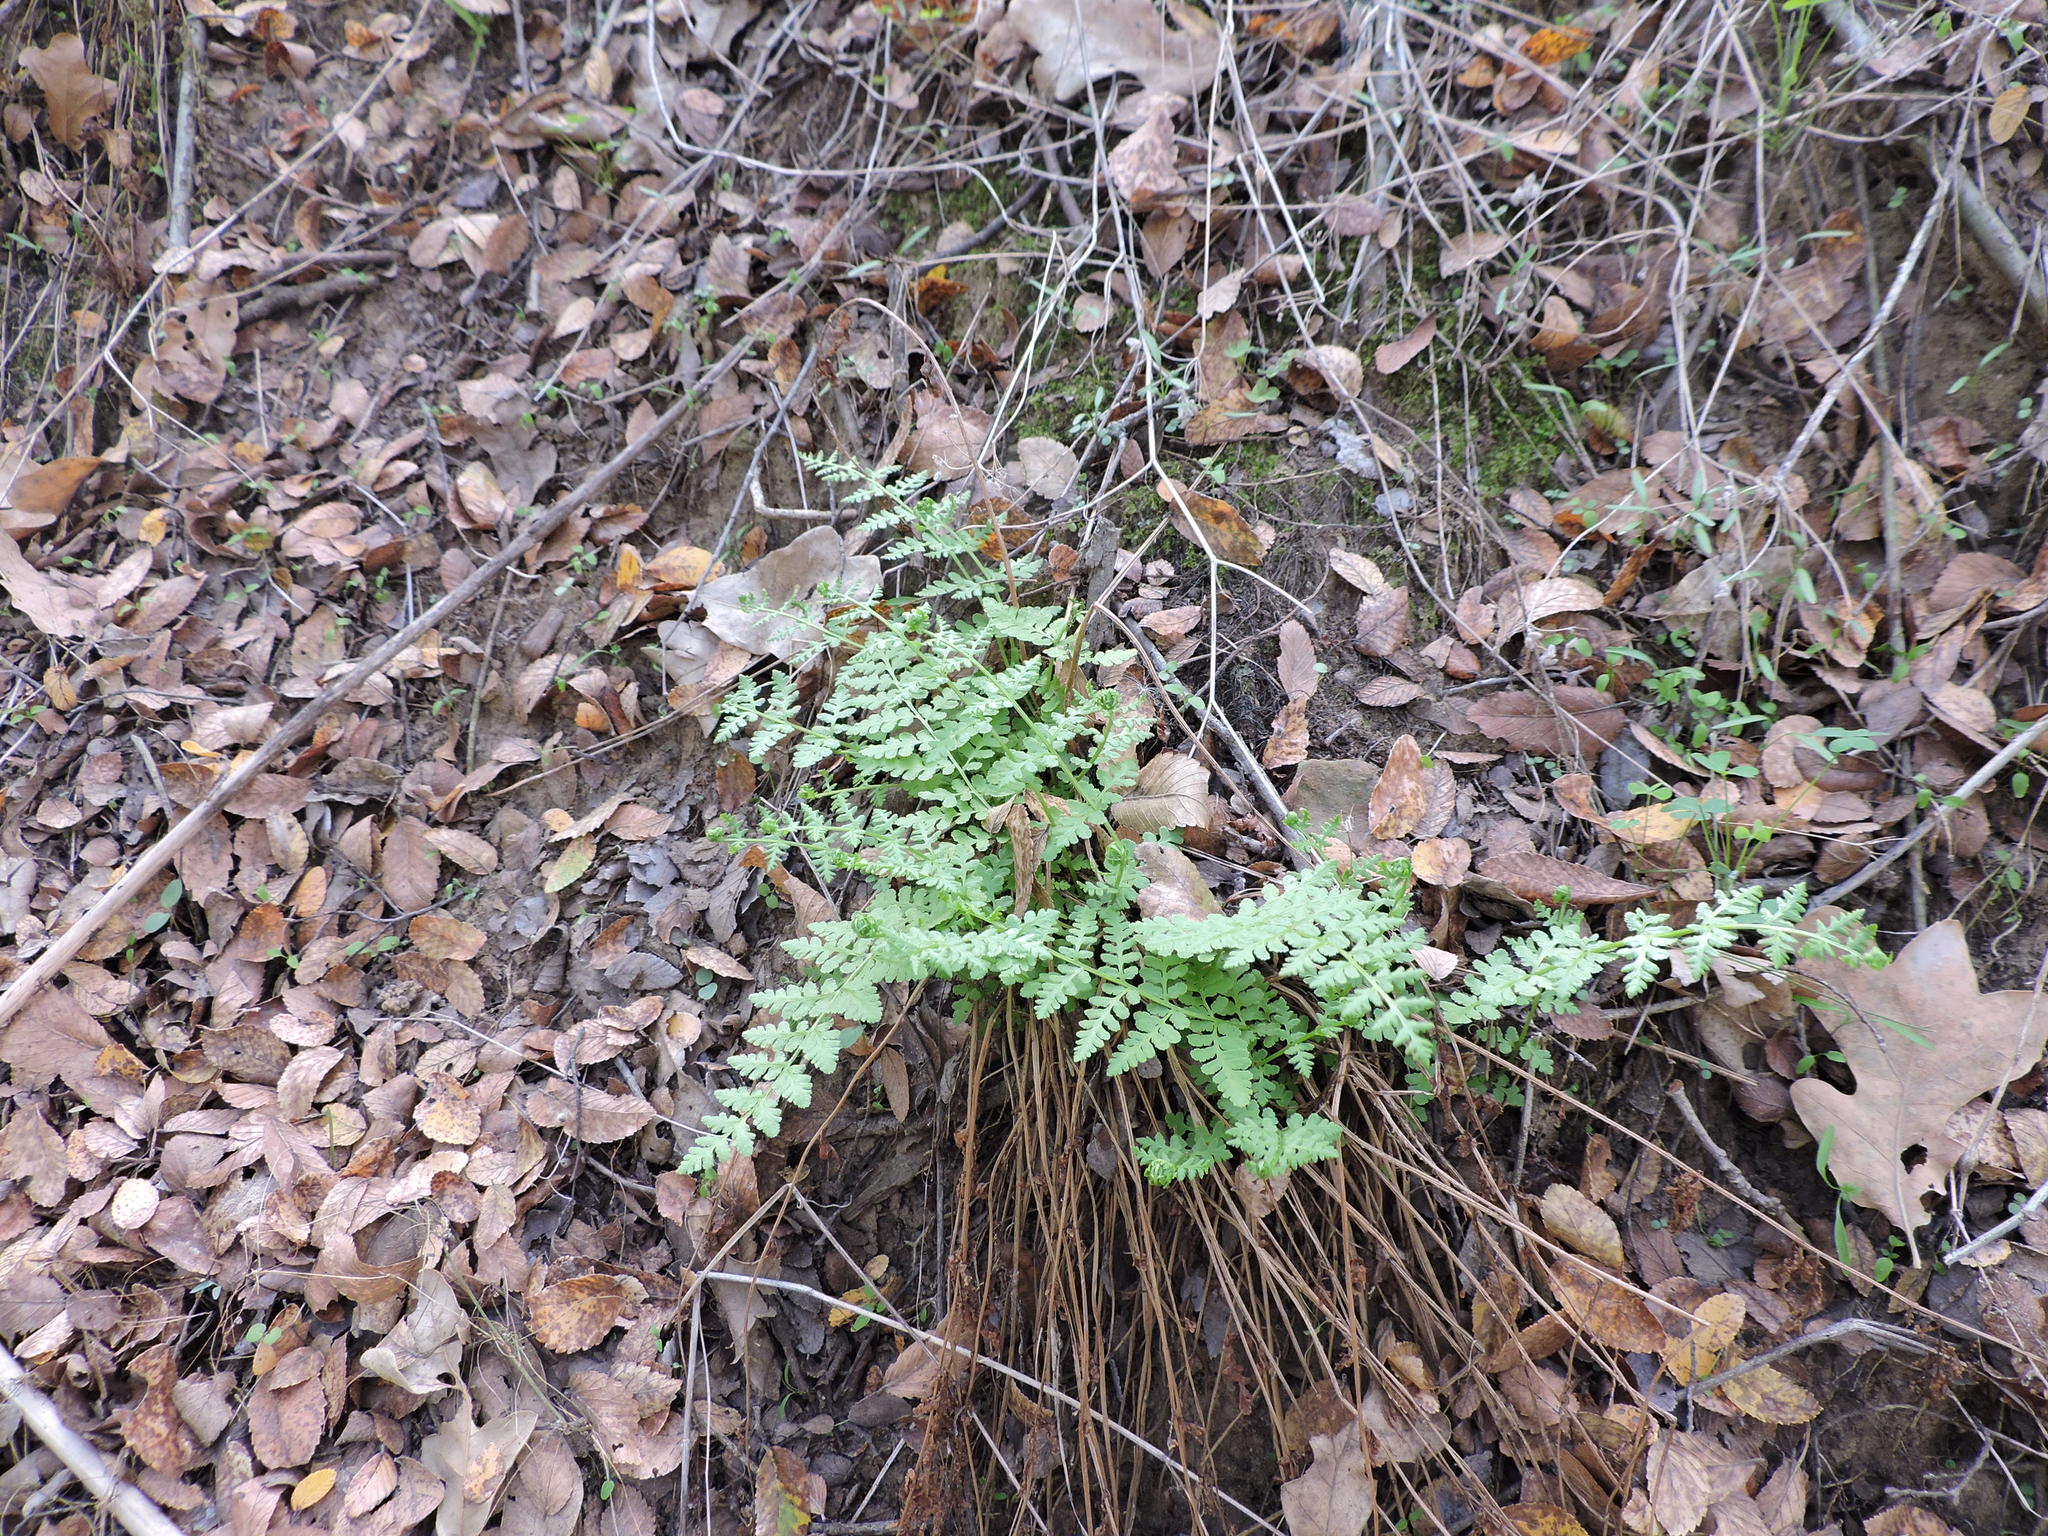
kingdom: Plantae
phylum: Tracheophyta
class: Polypodiopsida
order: Polypodiales
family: Woodsiaceae
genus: Physematium
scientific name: Physematium obtusum
